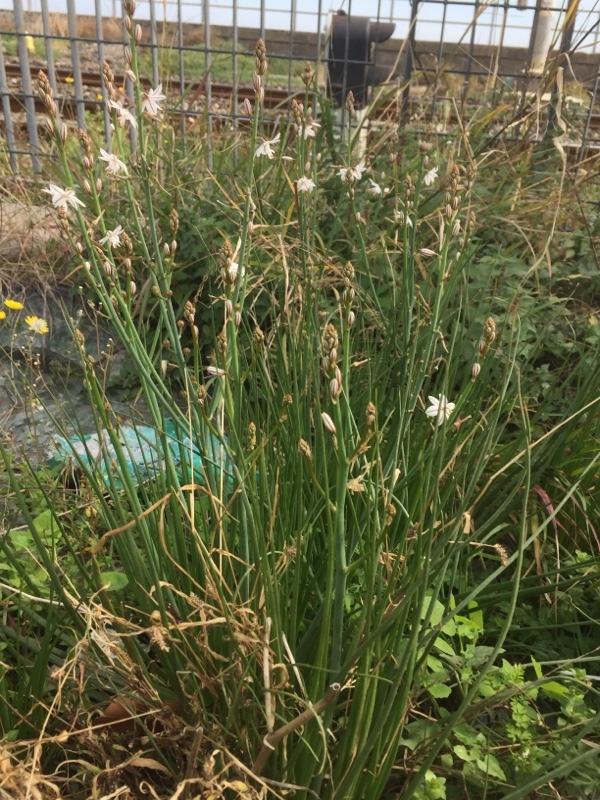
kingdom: Plantae
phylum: Tracheophyta
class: Liliopsida
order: Asparagales
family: Asphodelaceae
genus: Asphodelus
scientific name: Asphodelus fistulosus
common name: Onionweed
